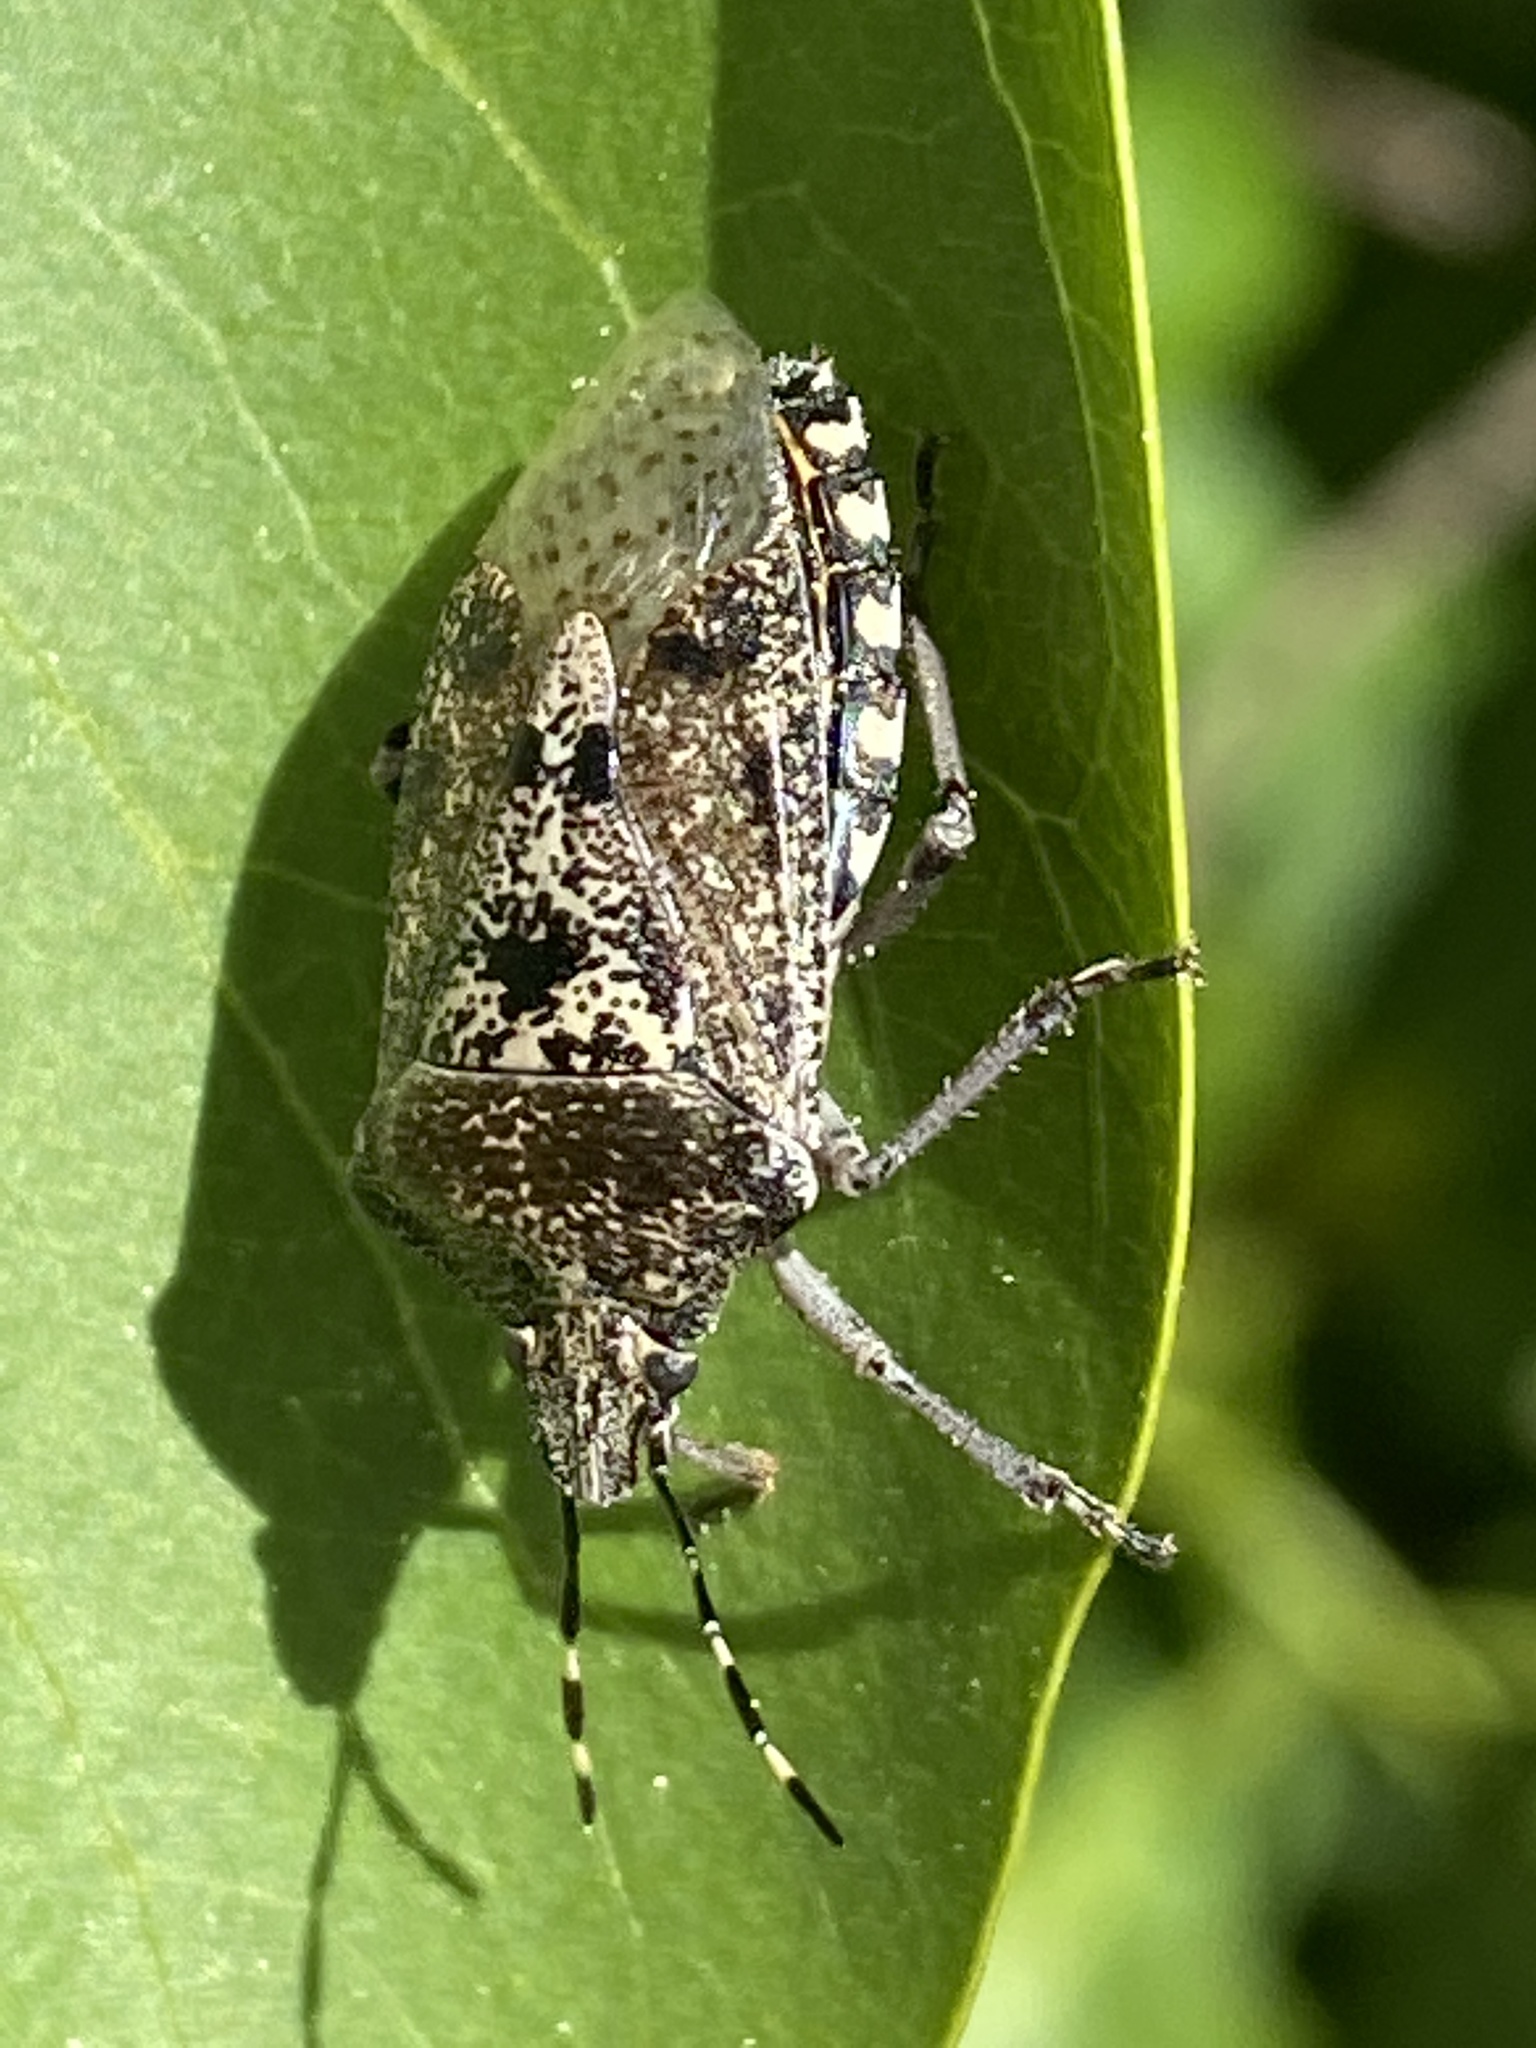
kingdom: Animalia
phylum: Arthropoda
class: Insecta
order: Hemiptera
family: Pentatomidae
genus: Rhaphigaster
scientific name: Rhaphigaster nebulosa
